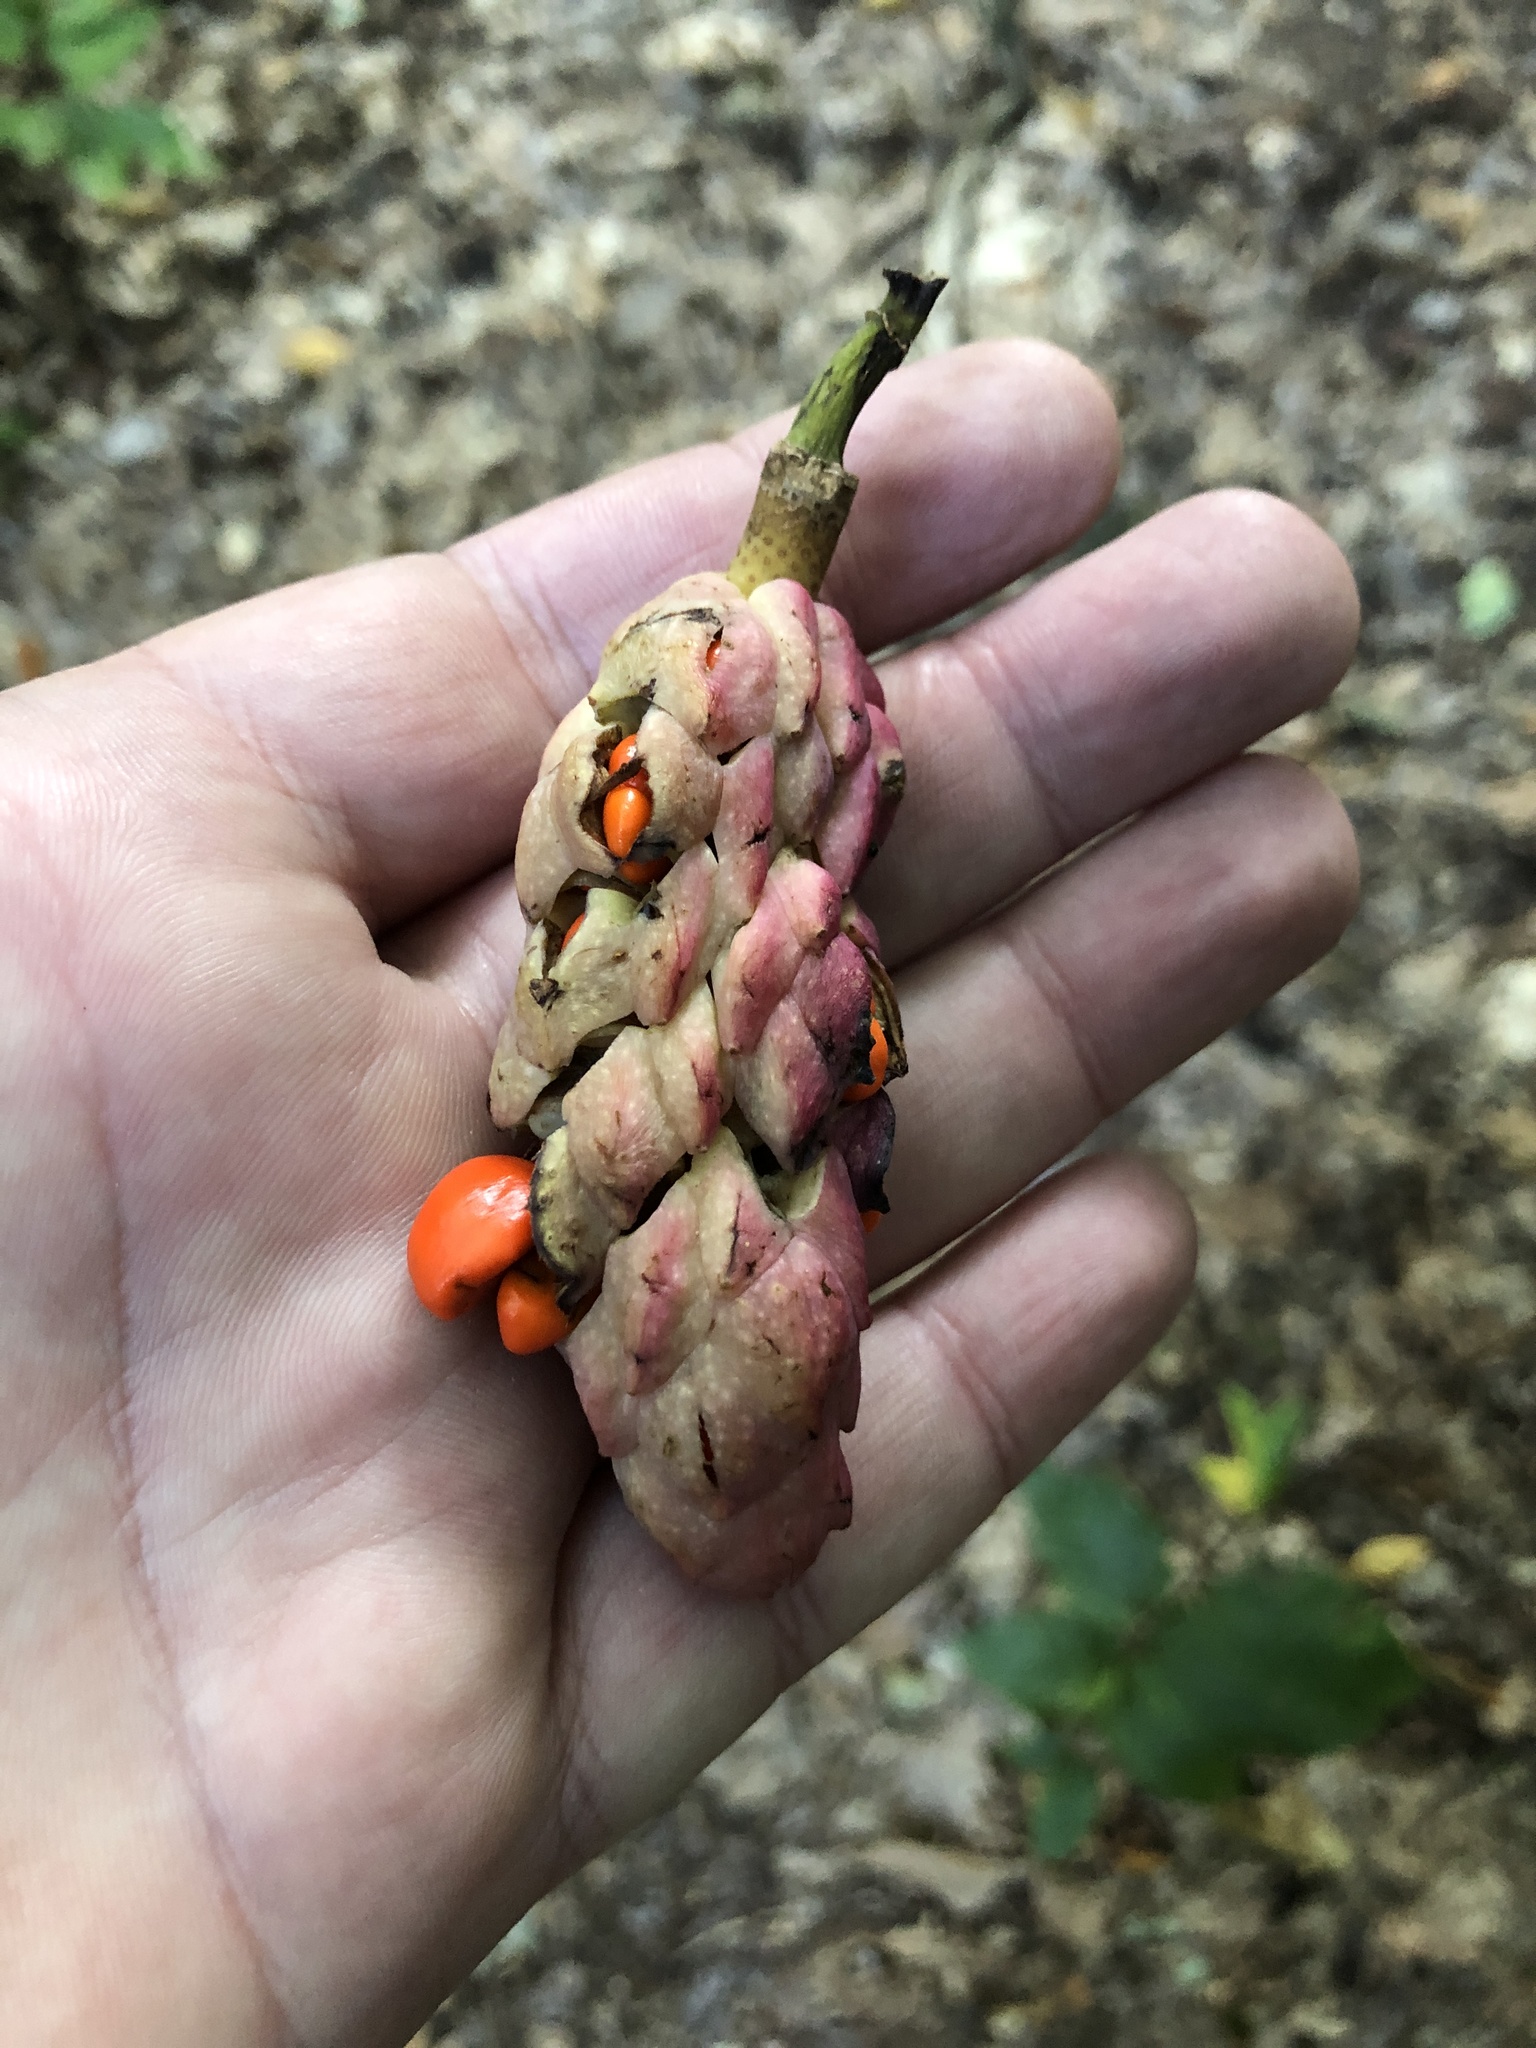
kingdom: Plantae
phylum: Tracheophyta
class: Magnoliopsida
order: Magnoliales
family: Magnoliaceae
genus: Magnolia
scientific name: Magnolia acuminata
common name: Cucumber magnolia
